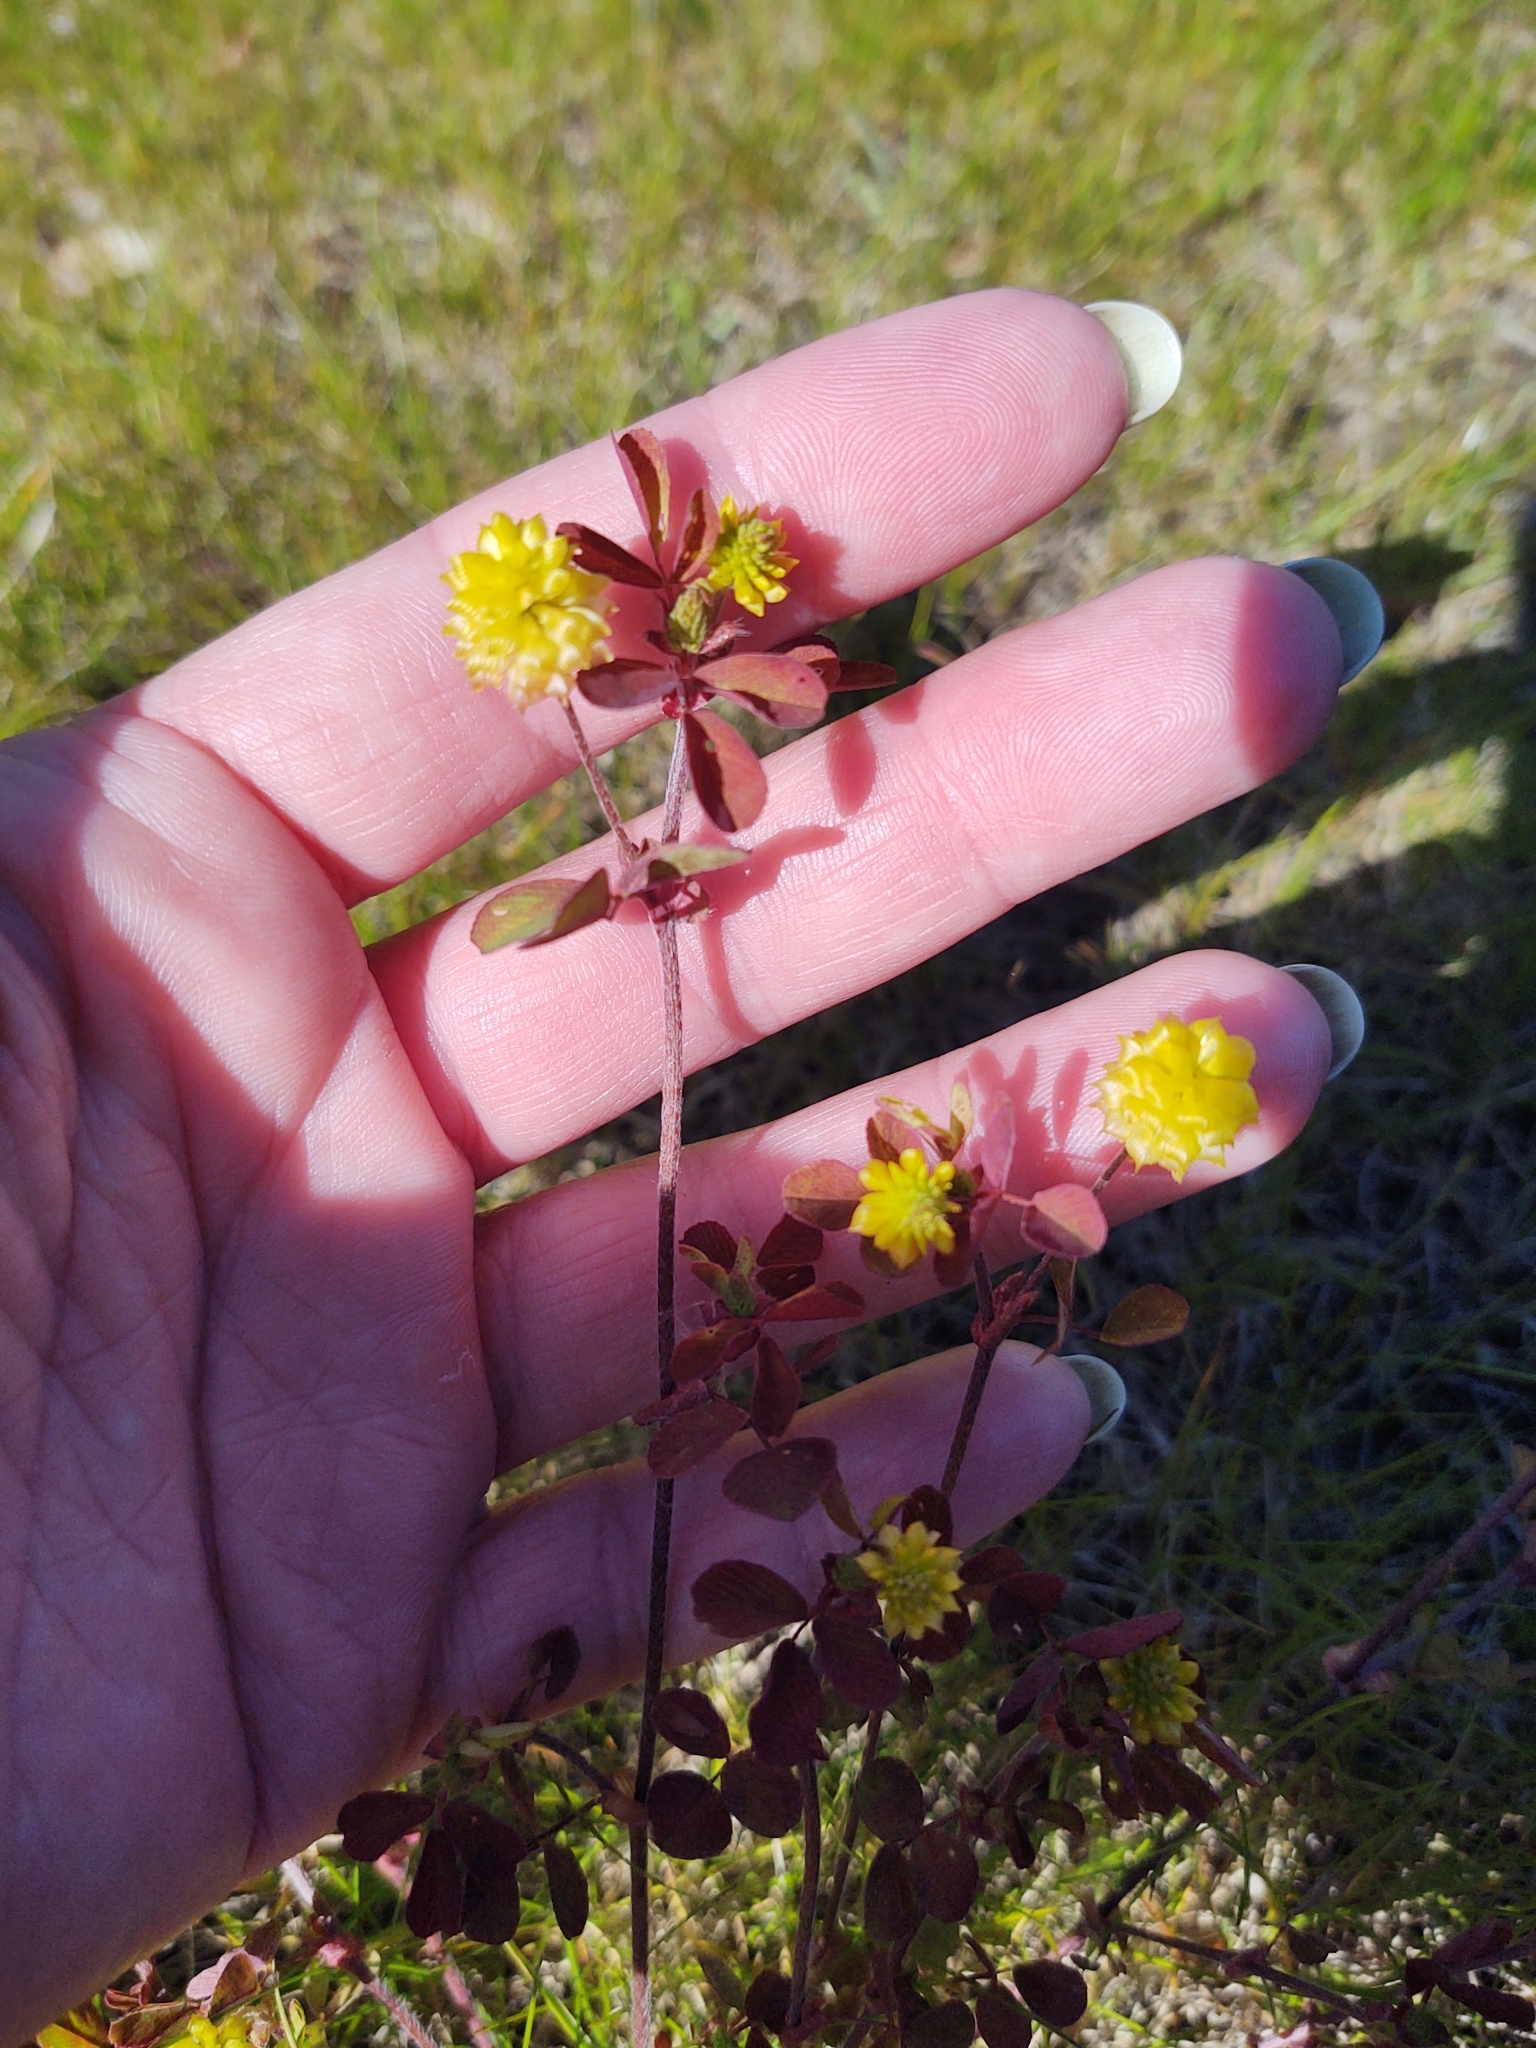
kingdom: Plantae
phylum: Tracheophyta
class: Magnoliopsida
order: Fabales
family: Fabaceae
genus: Trifolium
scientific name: Trifolium campestre
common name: Field clover
